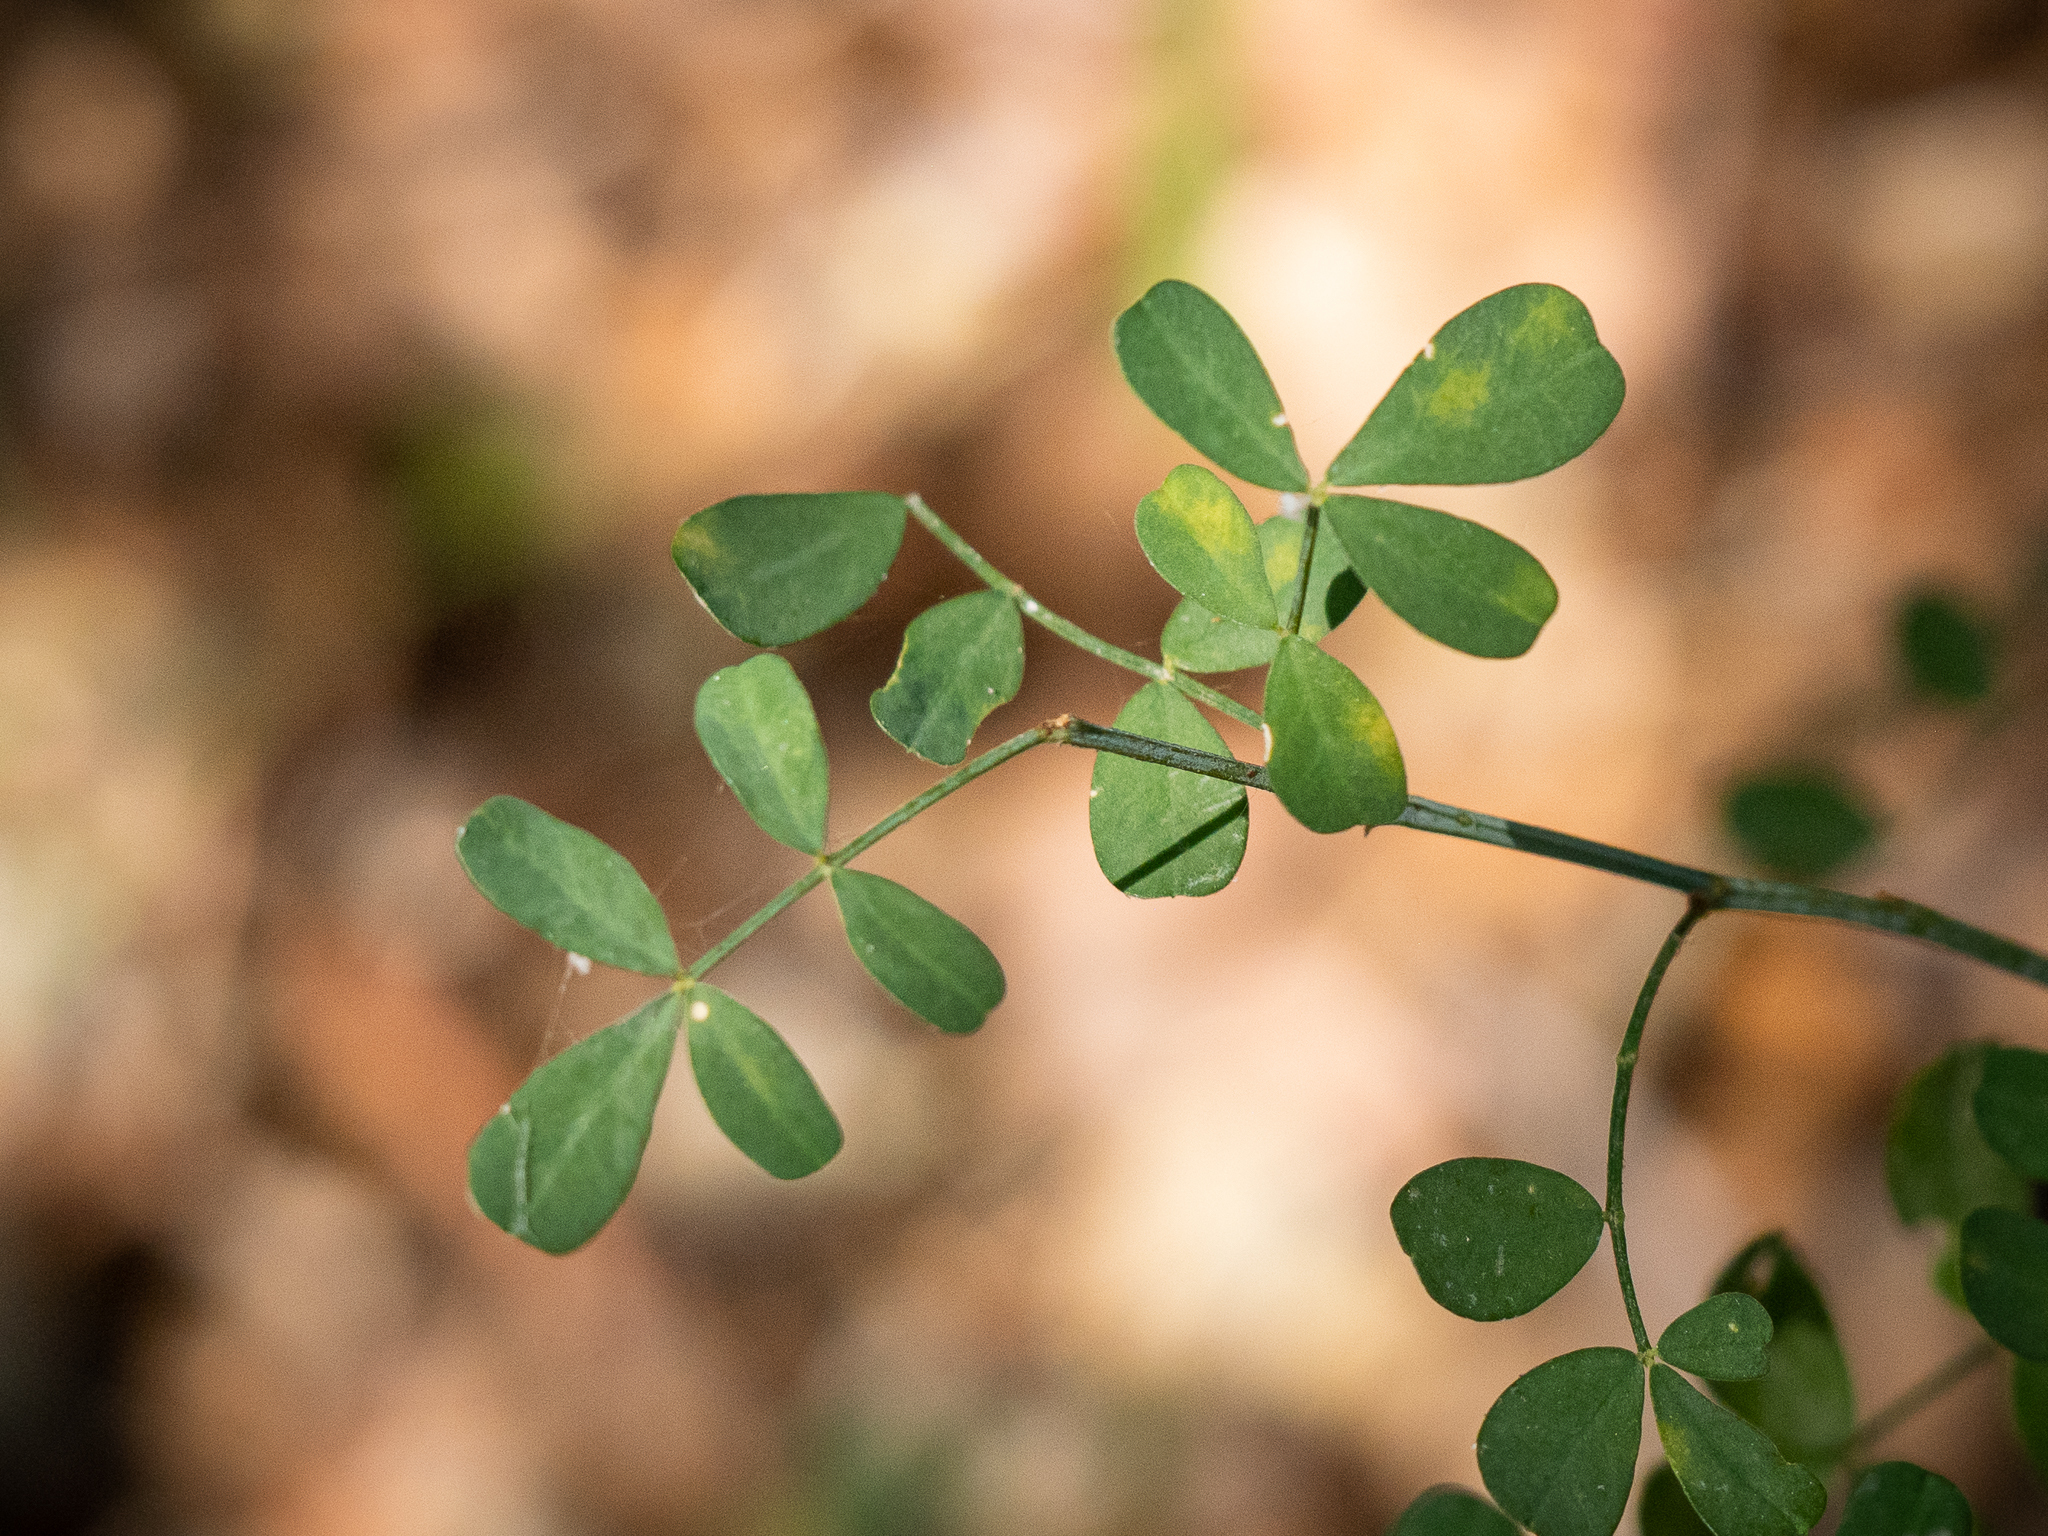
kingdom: Plantae
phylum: Tracheophyta
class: Magnoliopsida
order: Fabales
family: Fabaceae
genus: Hippocrepis
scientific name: Hippocrepis emerus
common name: Scorpion senna
